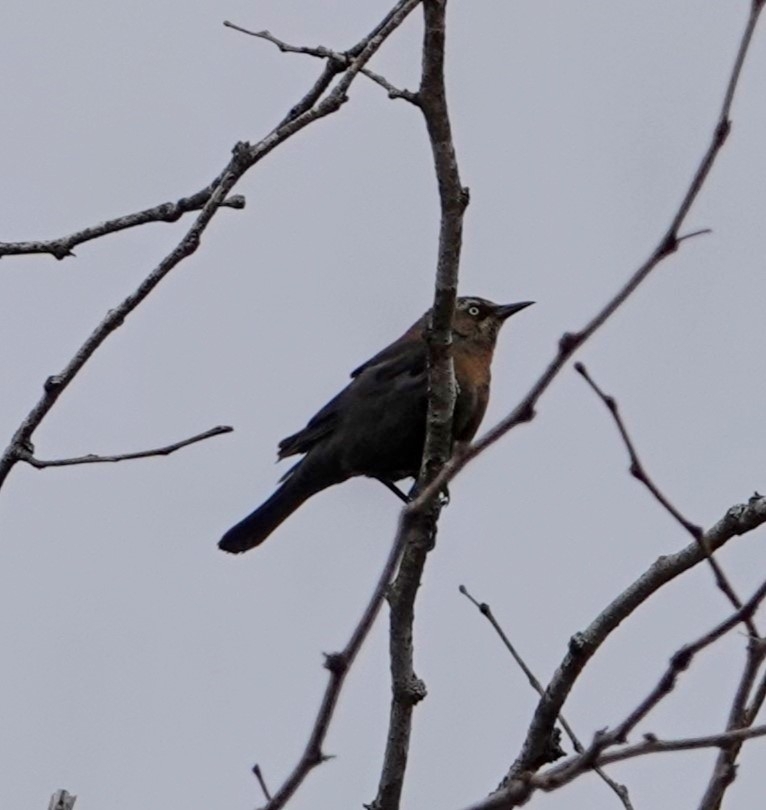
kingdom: Animalia
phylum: Chordata
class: Aves
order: Passeriformes
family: Icteridae
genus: Euphagus
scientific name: Euphagus carolinus
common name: Rusty blackbird
